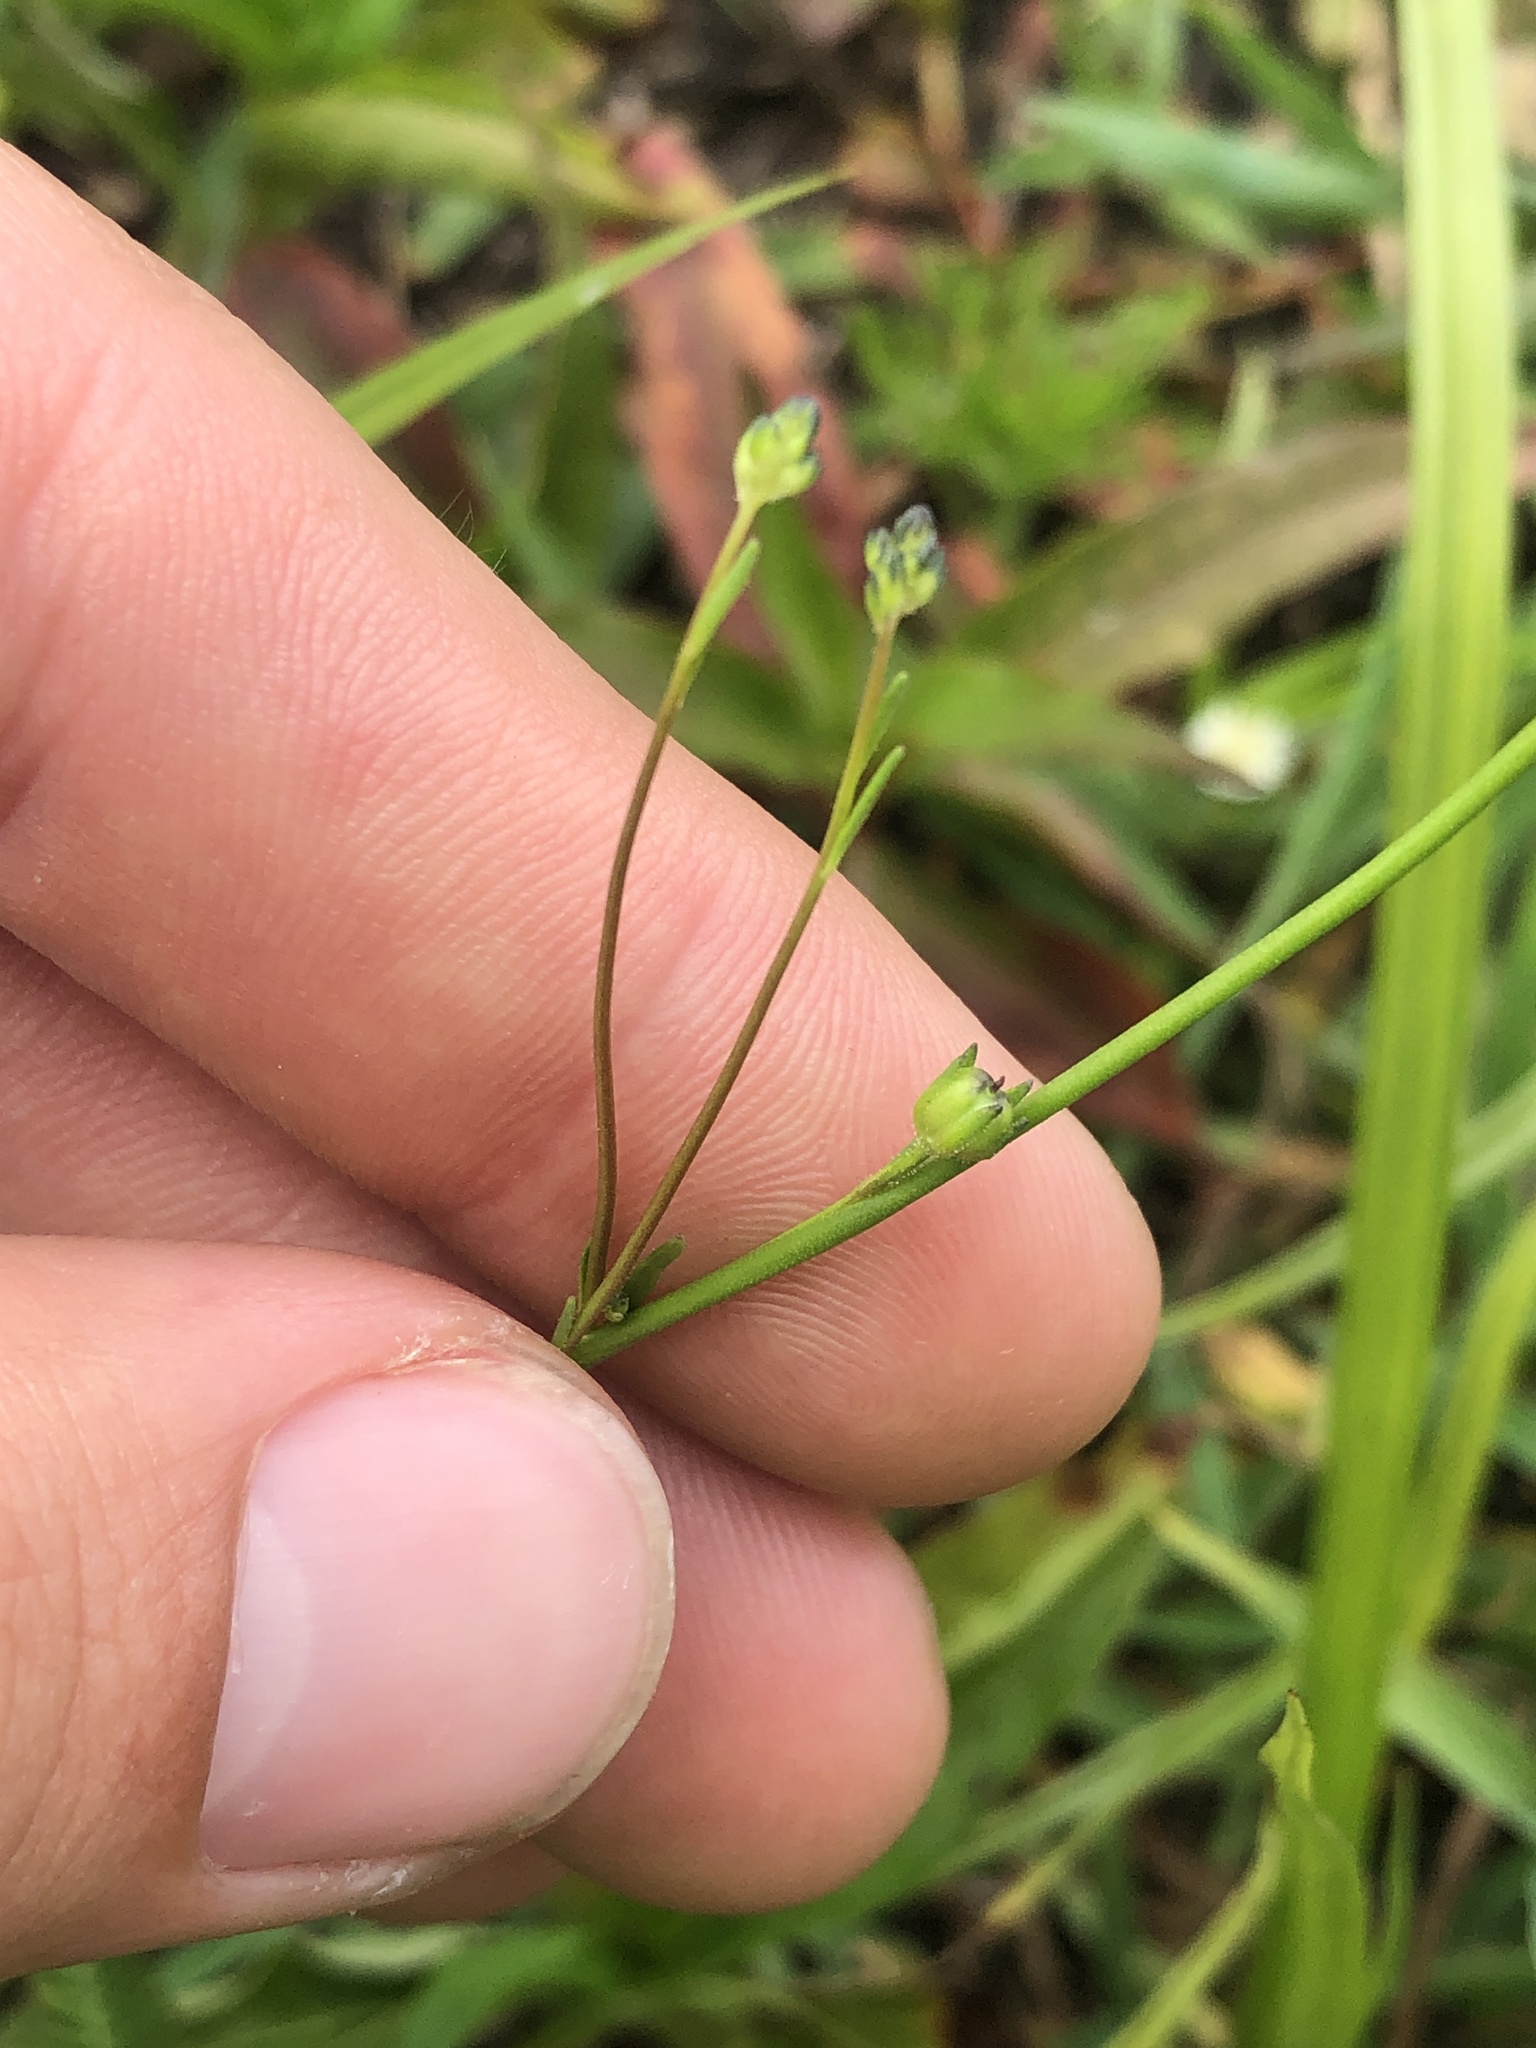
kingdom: Plantae
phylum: Tracheophyta
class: Magnoliopsida
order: Lamiales
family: Plantaginaceae
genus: Nuttallanthus
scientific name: Nuttallanthus canadensis
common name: Blue toadflax
